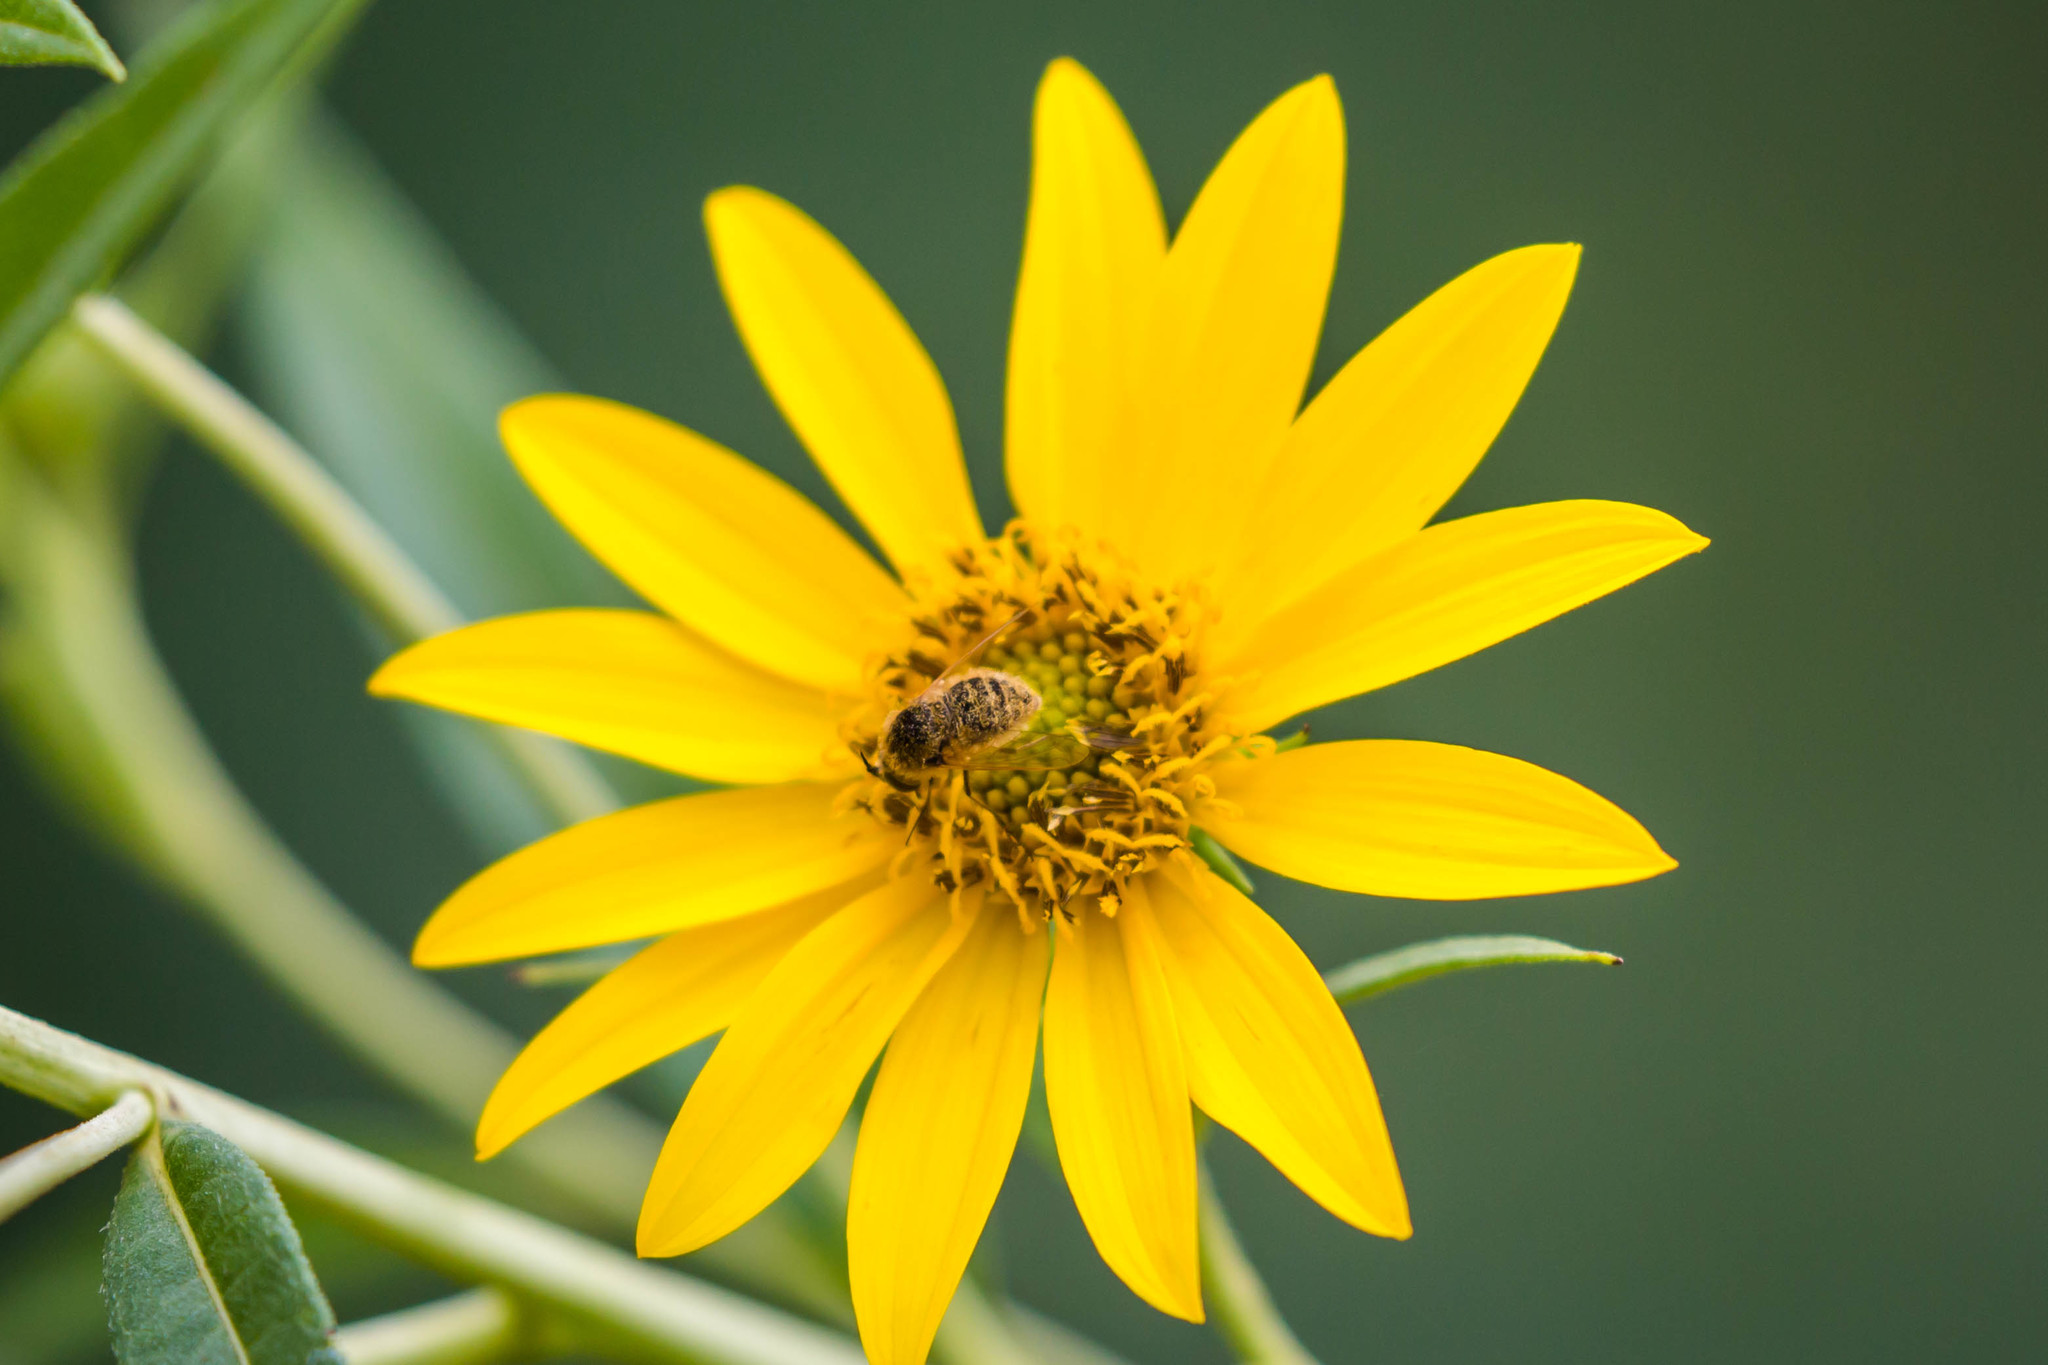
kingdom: Animalia
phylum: Arthropoda
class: Insecta
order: Diptera
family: Bombyliidae
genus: Sparnopolius
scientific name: Sparnopolius confusus
